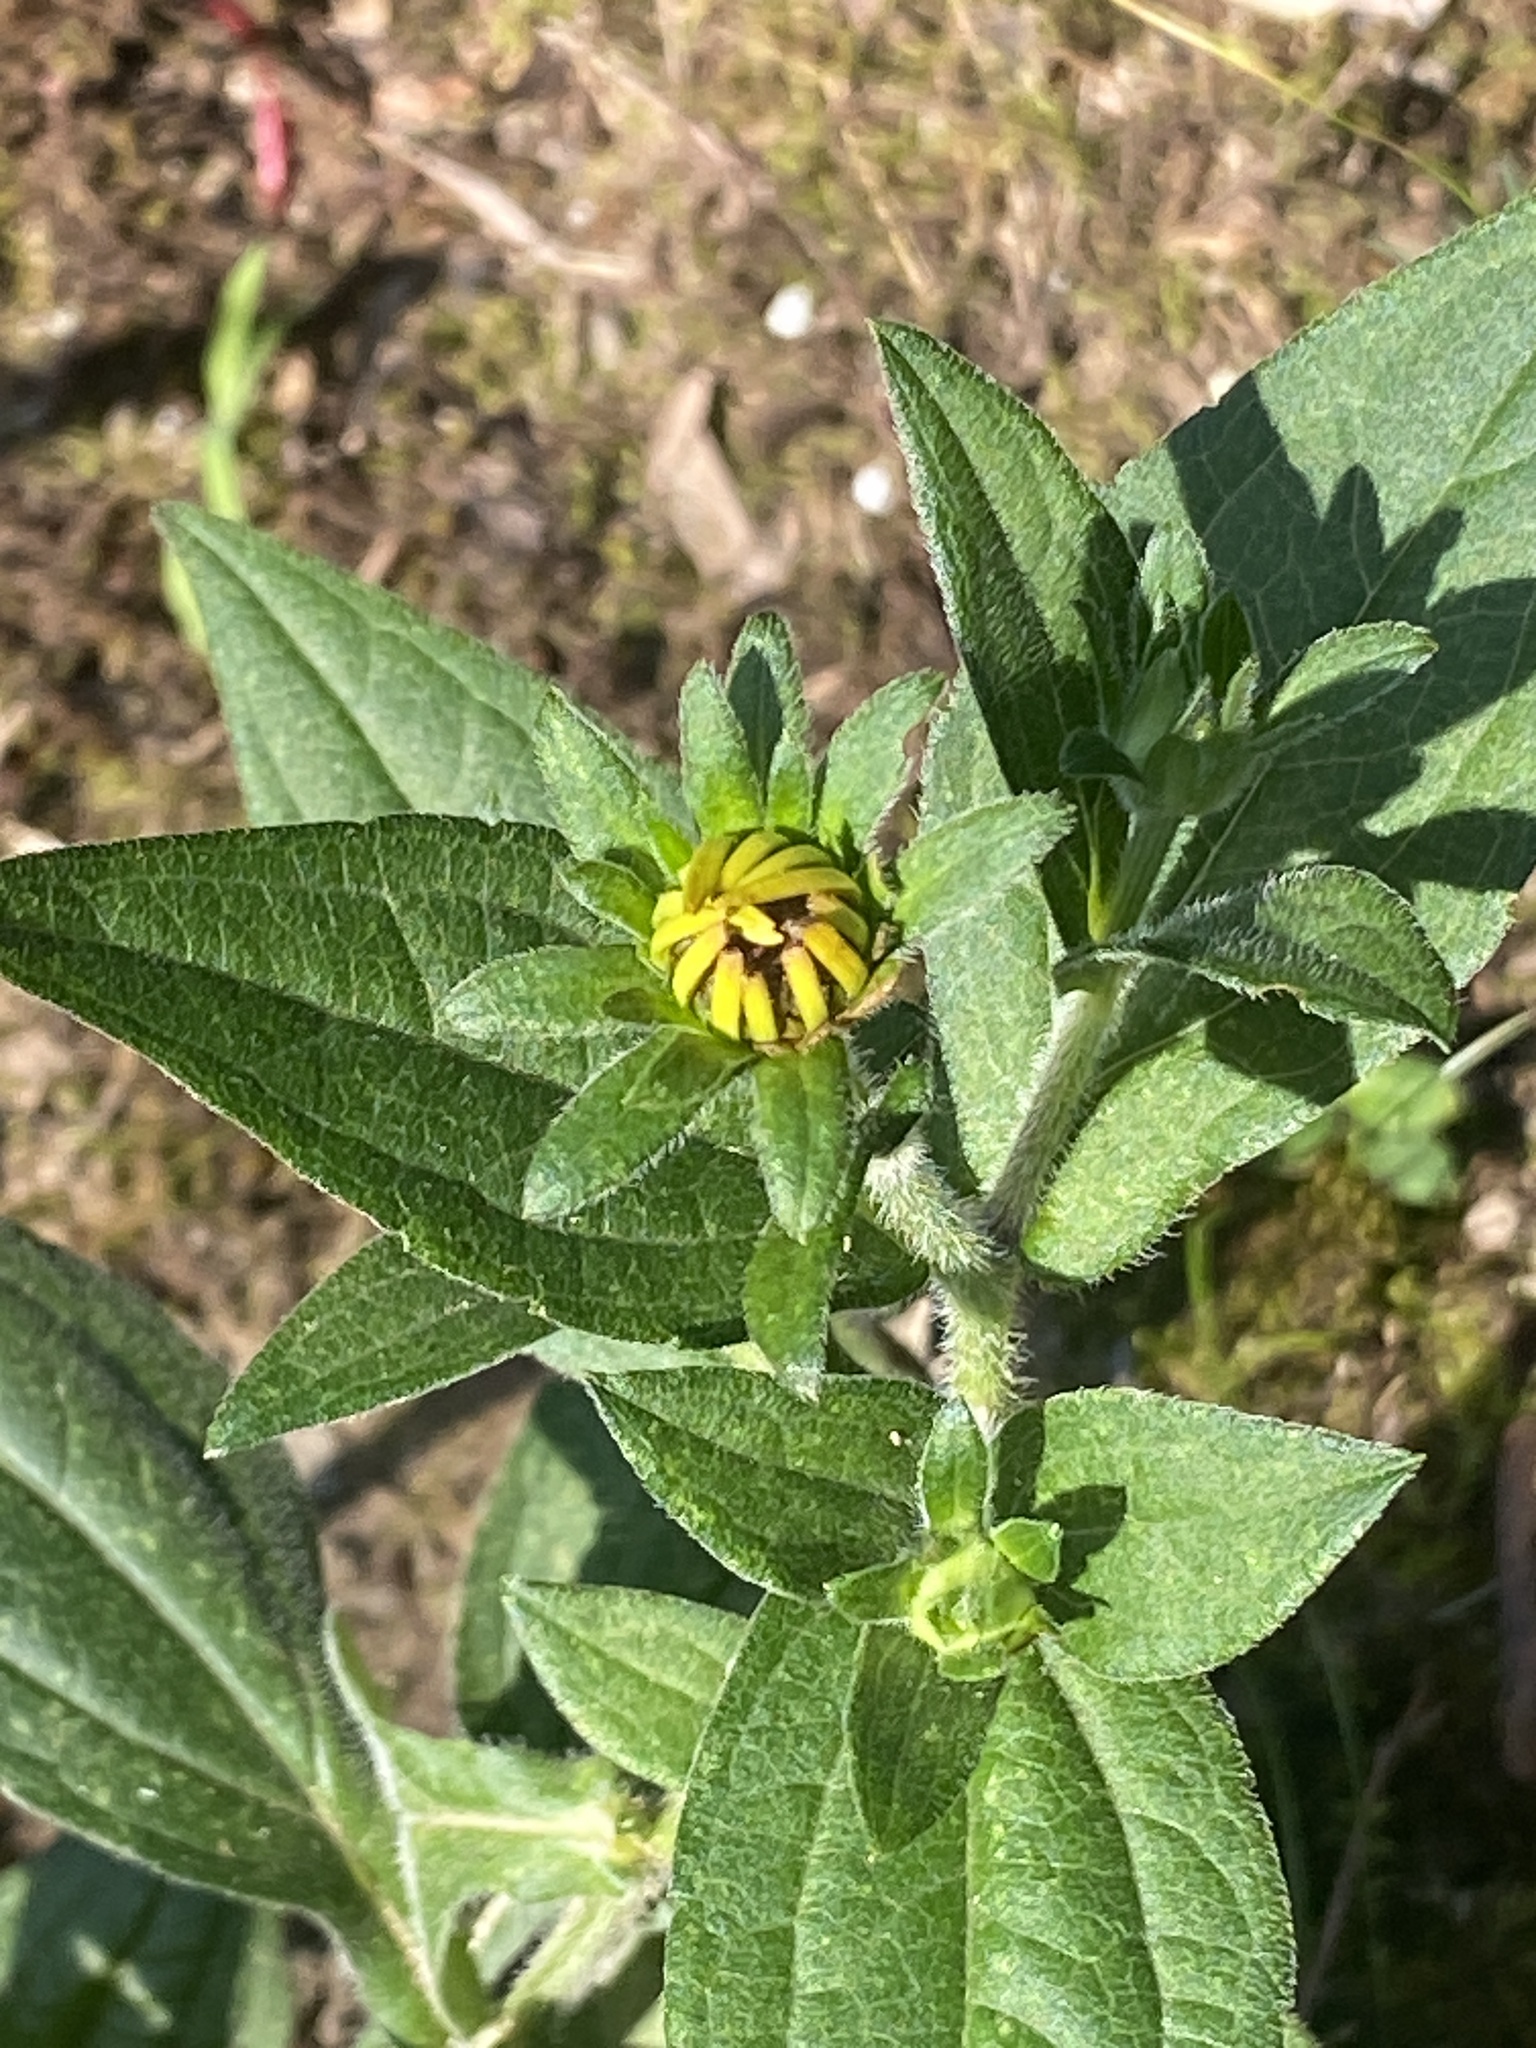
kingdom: Plantae
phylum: Tracheophyta
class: Magnoliopsida
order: Asterales
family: Asteraceae
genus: Rudbeckia
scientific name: Rudbeckia hirta
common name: Black-eyed-susan
